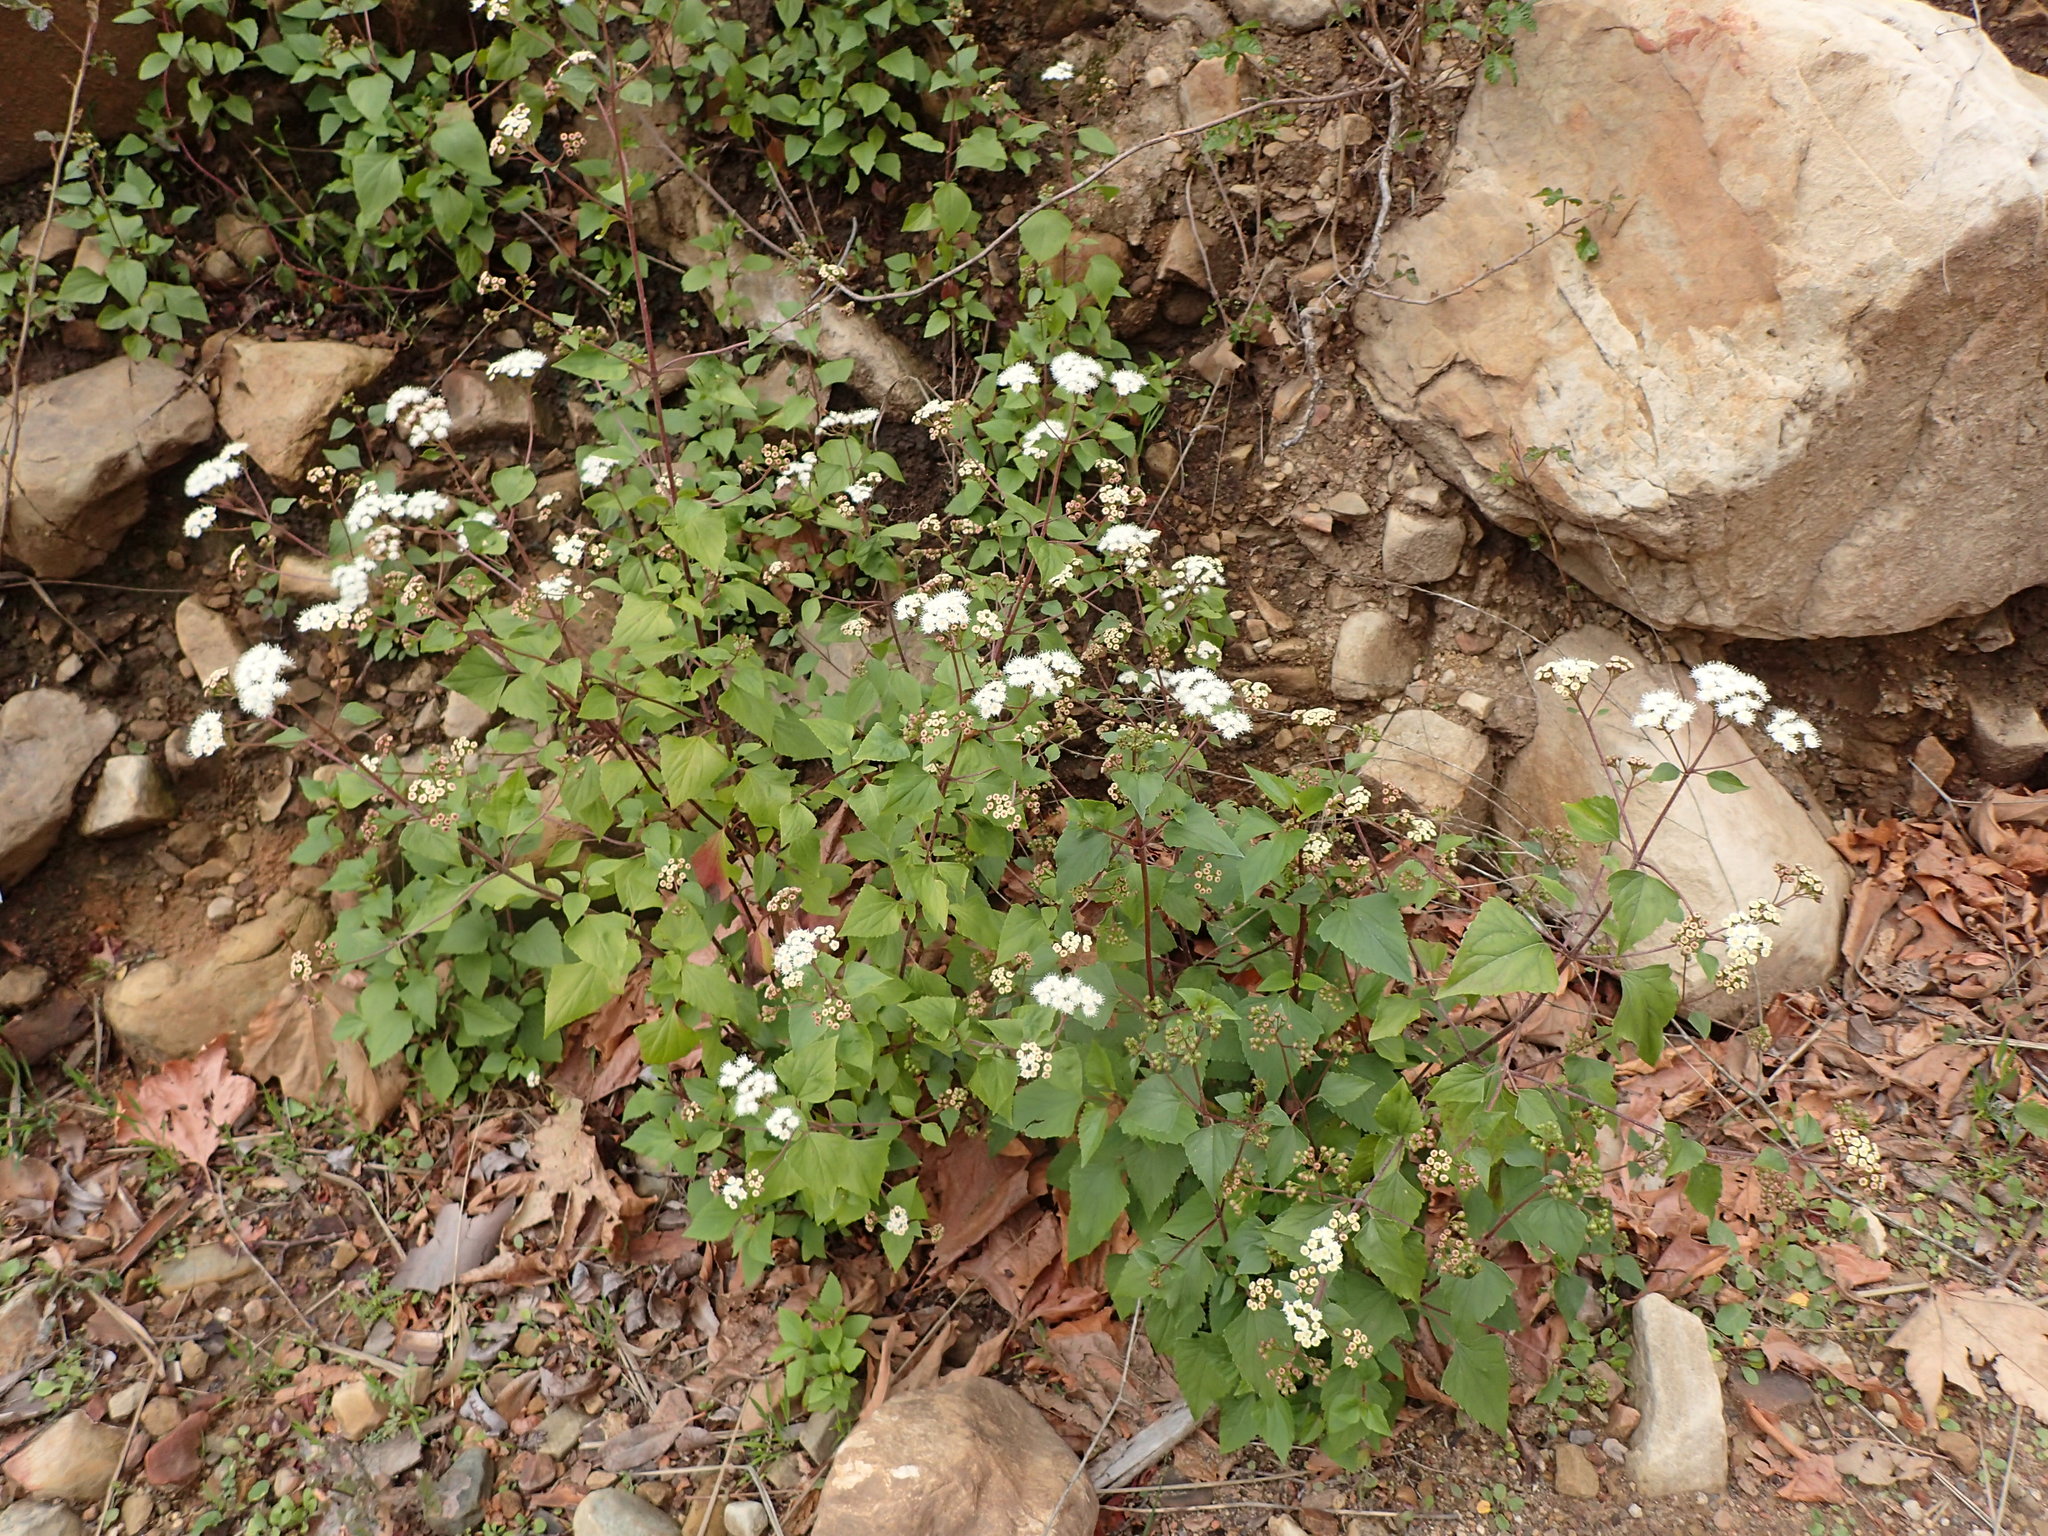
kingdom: Plantae
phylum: Tracheophyta
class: Magnoliopsida
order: Asterales
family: Asteraceae
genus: Ageratina
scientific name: Ageratina adenophora
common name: Sticky snakeroot
